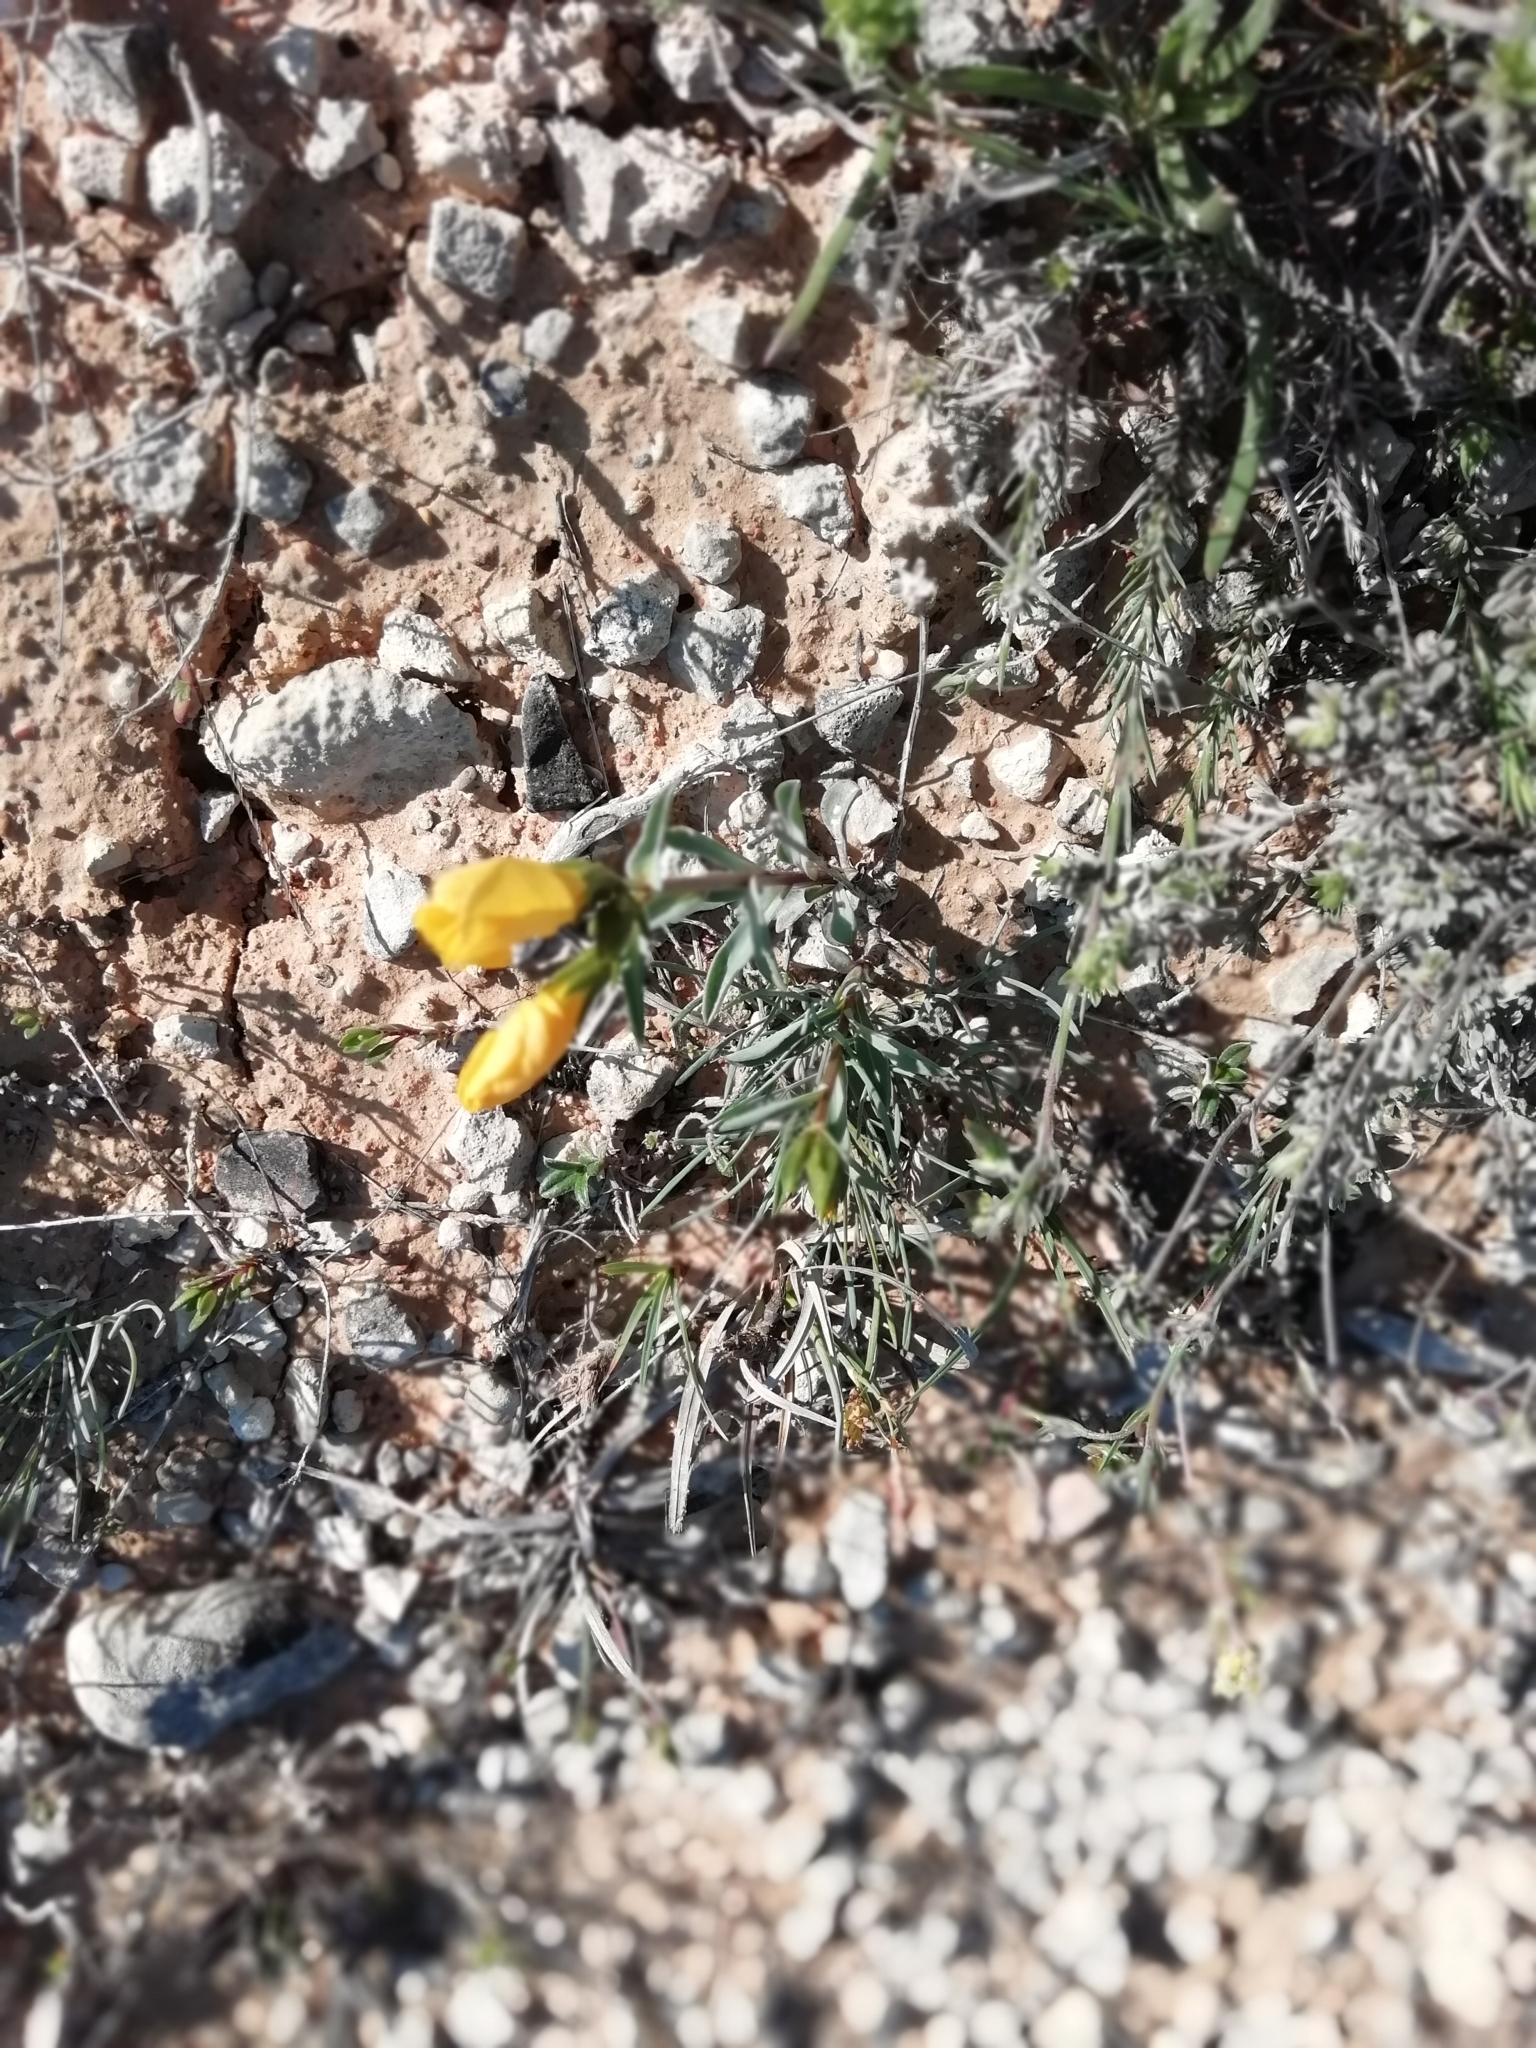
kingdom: Plantae
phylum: Tracheophyta
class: Magnoliopsida
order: Malpighiales
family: Linaceae
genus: Linum
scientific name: Linum campanulatum
